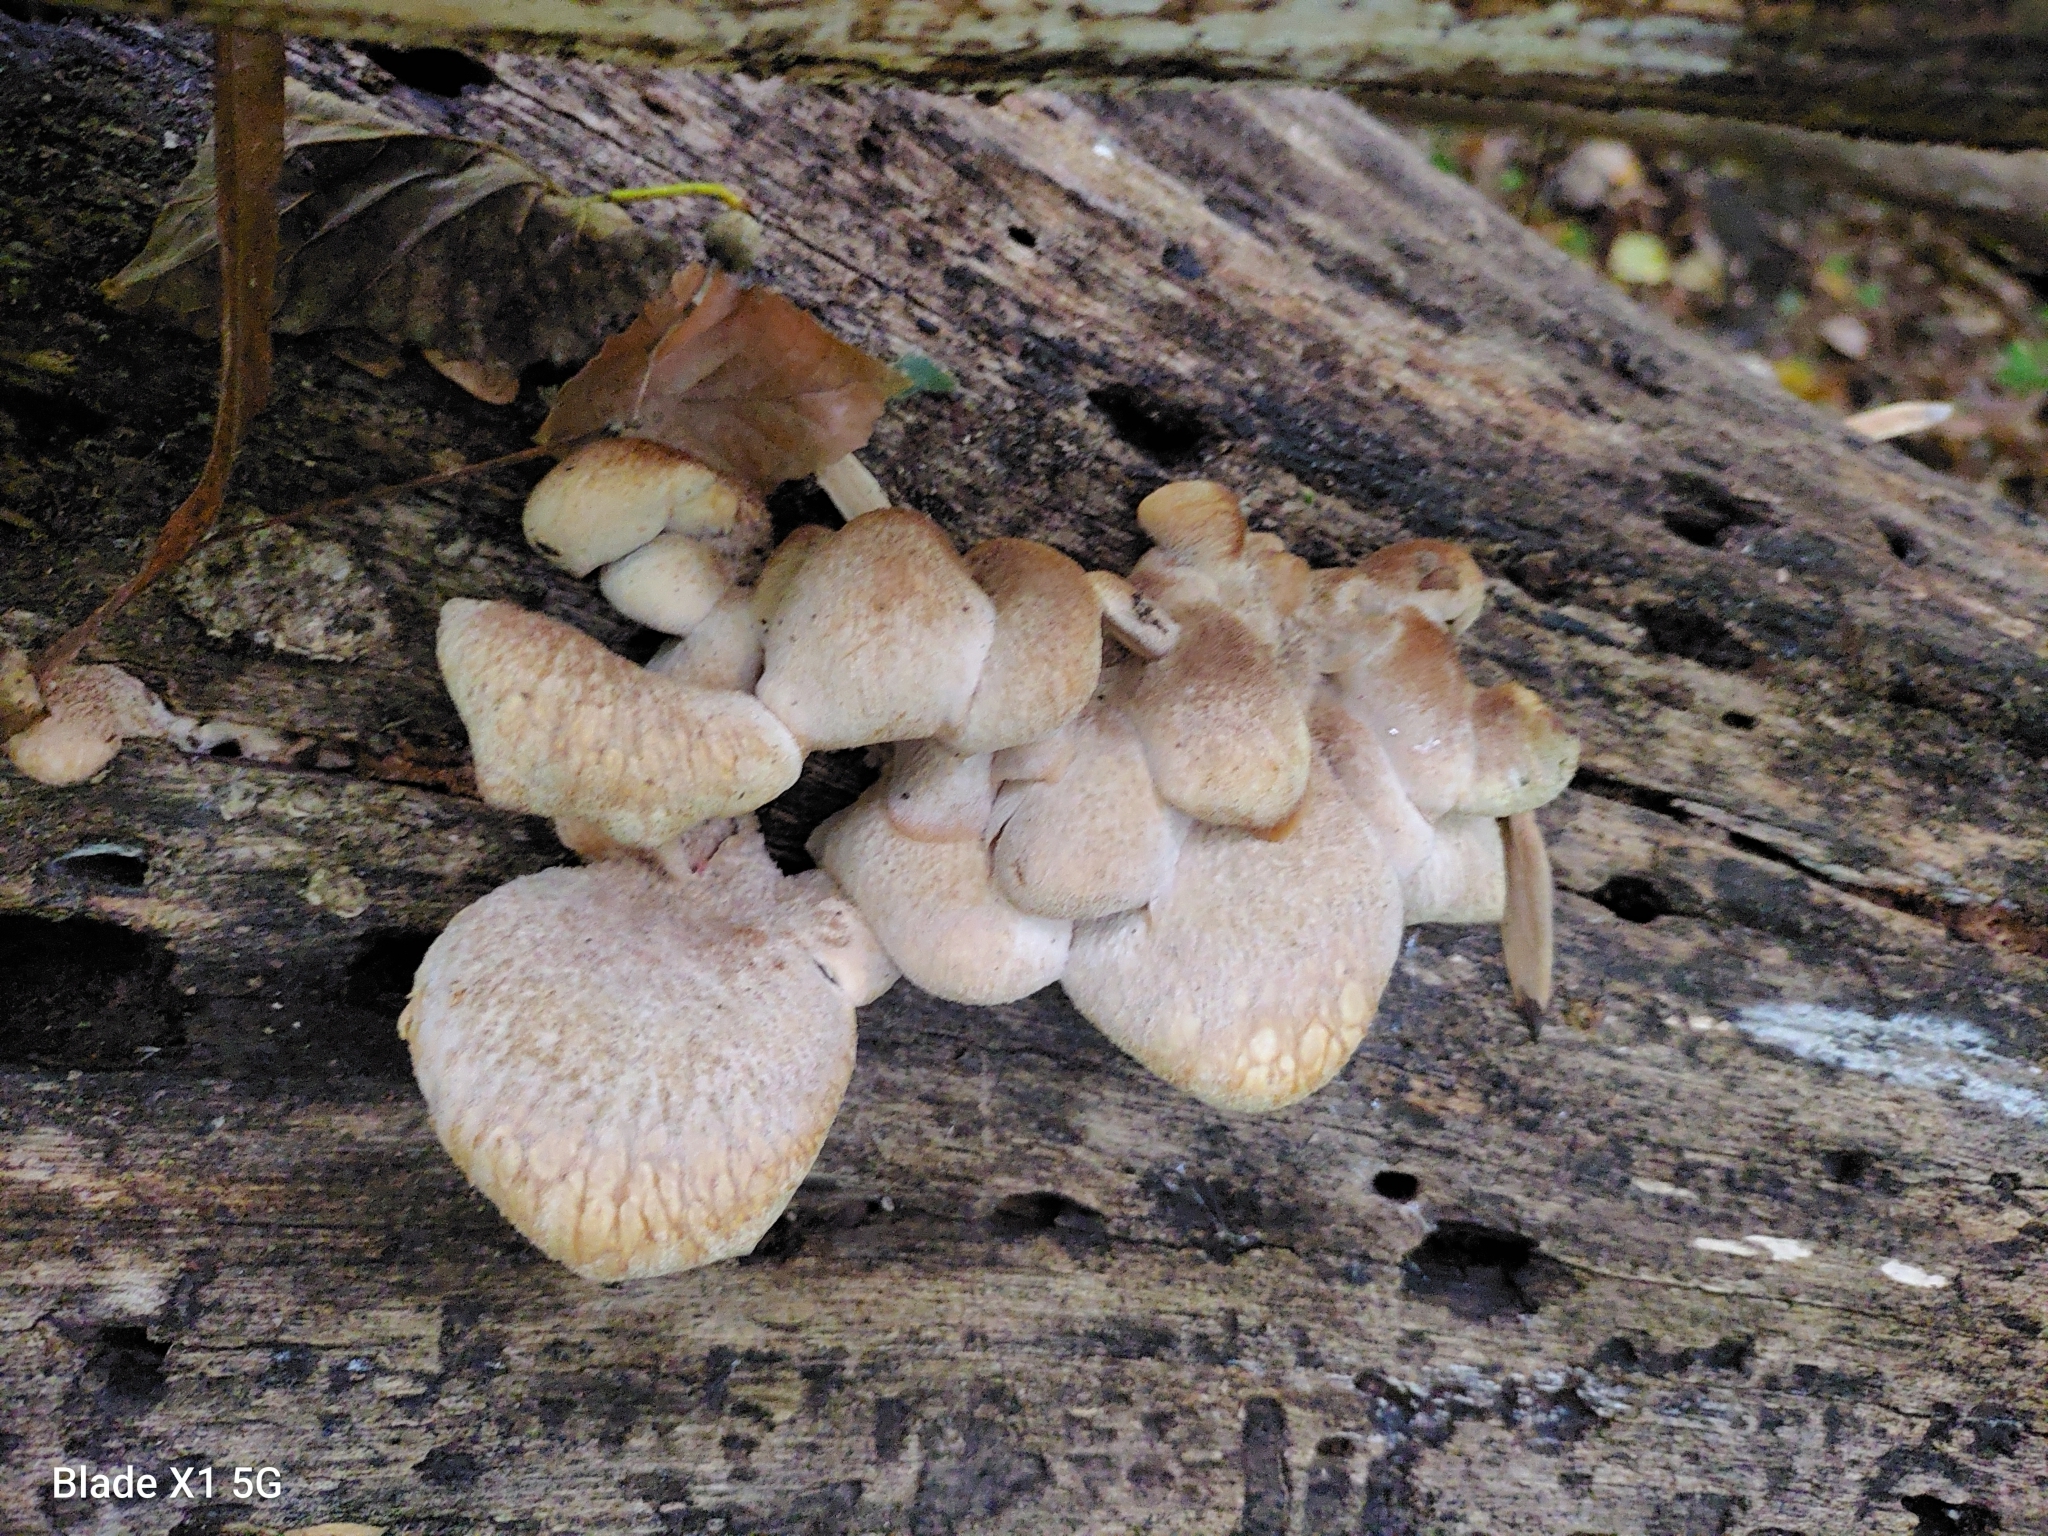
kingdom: Fungi
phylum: Basidiomycota
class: Agaricomycetes
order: Russulales
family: Auriscalpiaceae
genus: Lentinellus
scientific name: Lentinellus ursinus
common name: Bear lentinus
